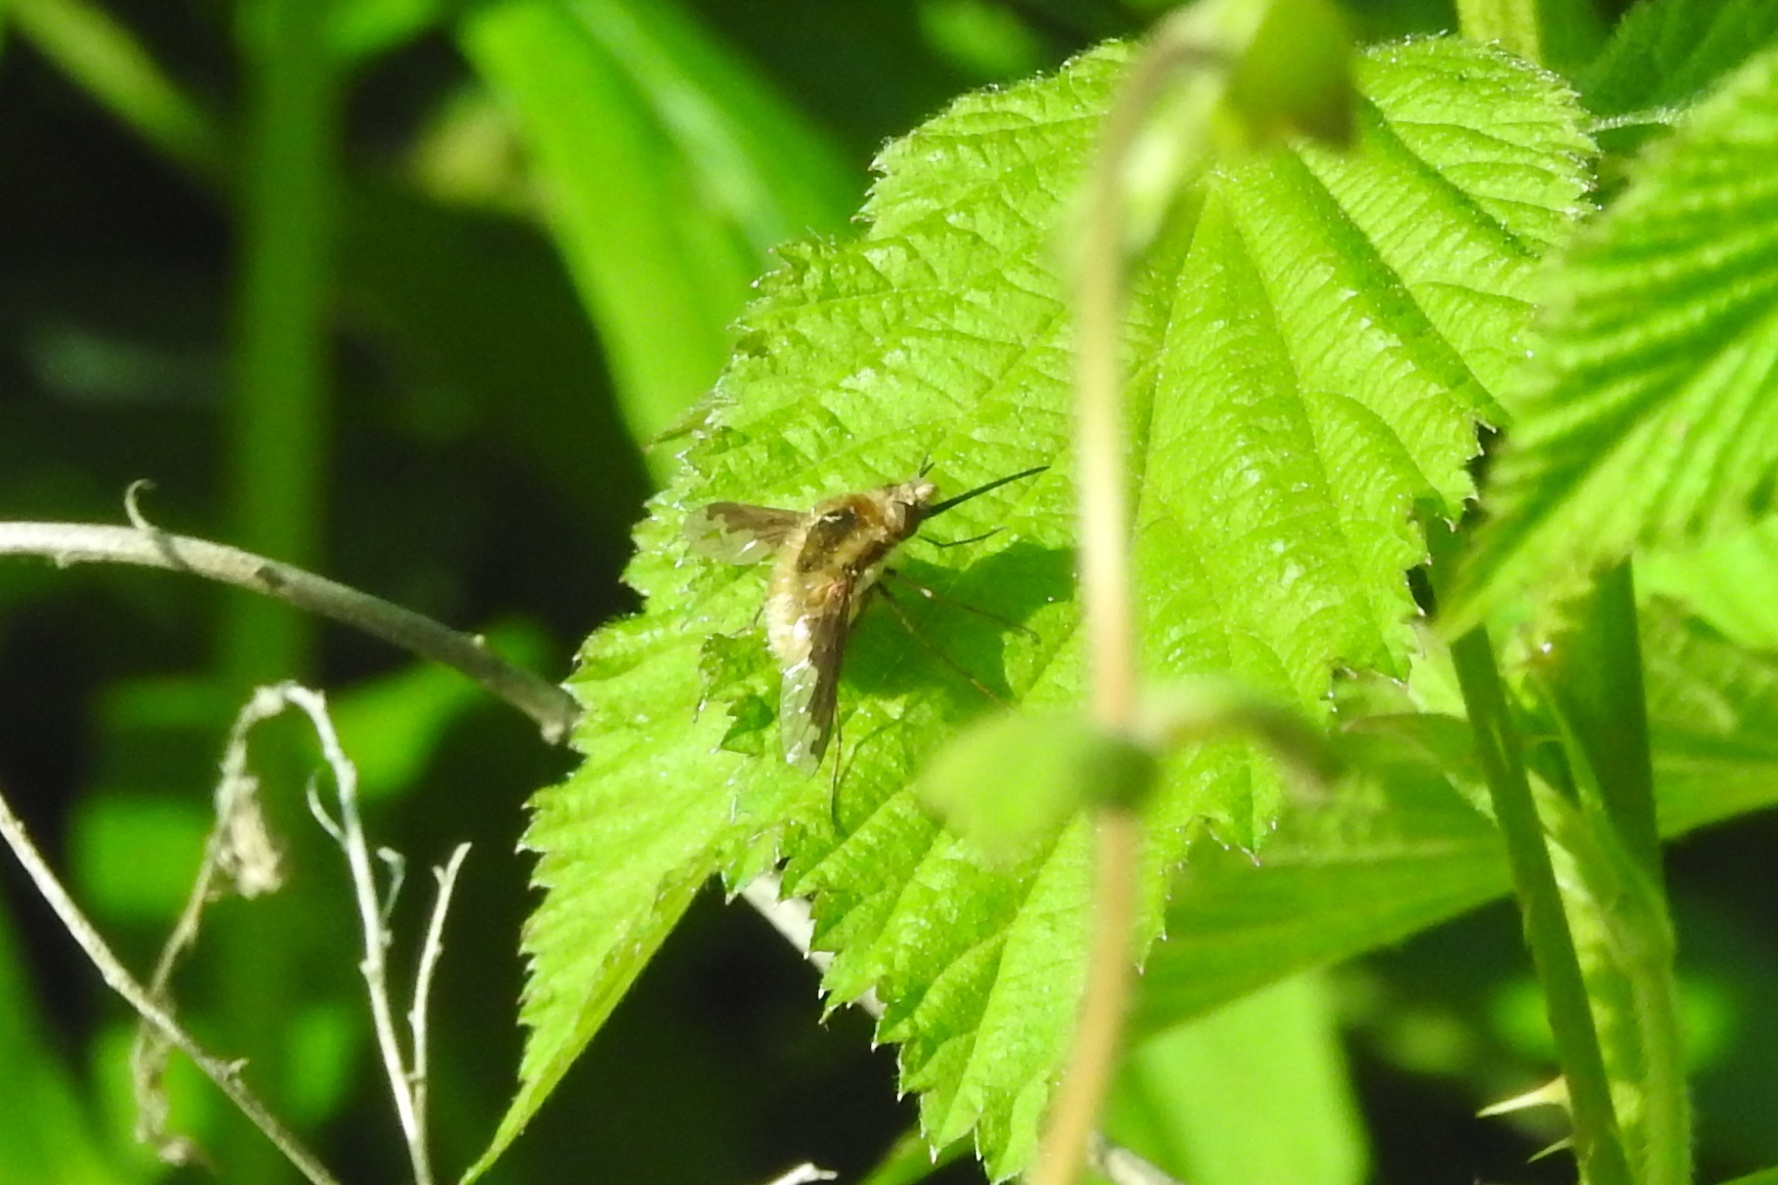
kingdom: Animalia
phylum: Arthropoda
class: Insecta
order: Diptera
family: Bombyliidae
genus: Bombylius
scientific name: Bombylius major
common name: Bee fly
